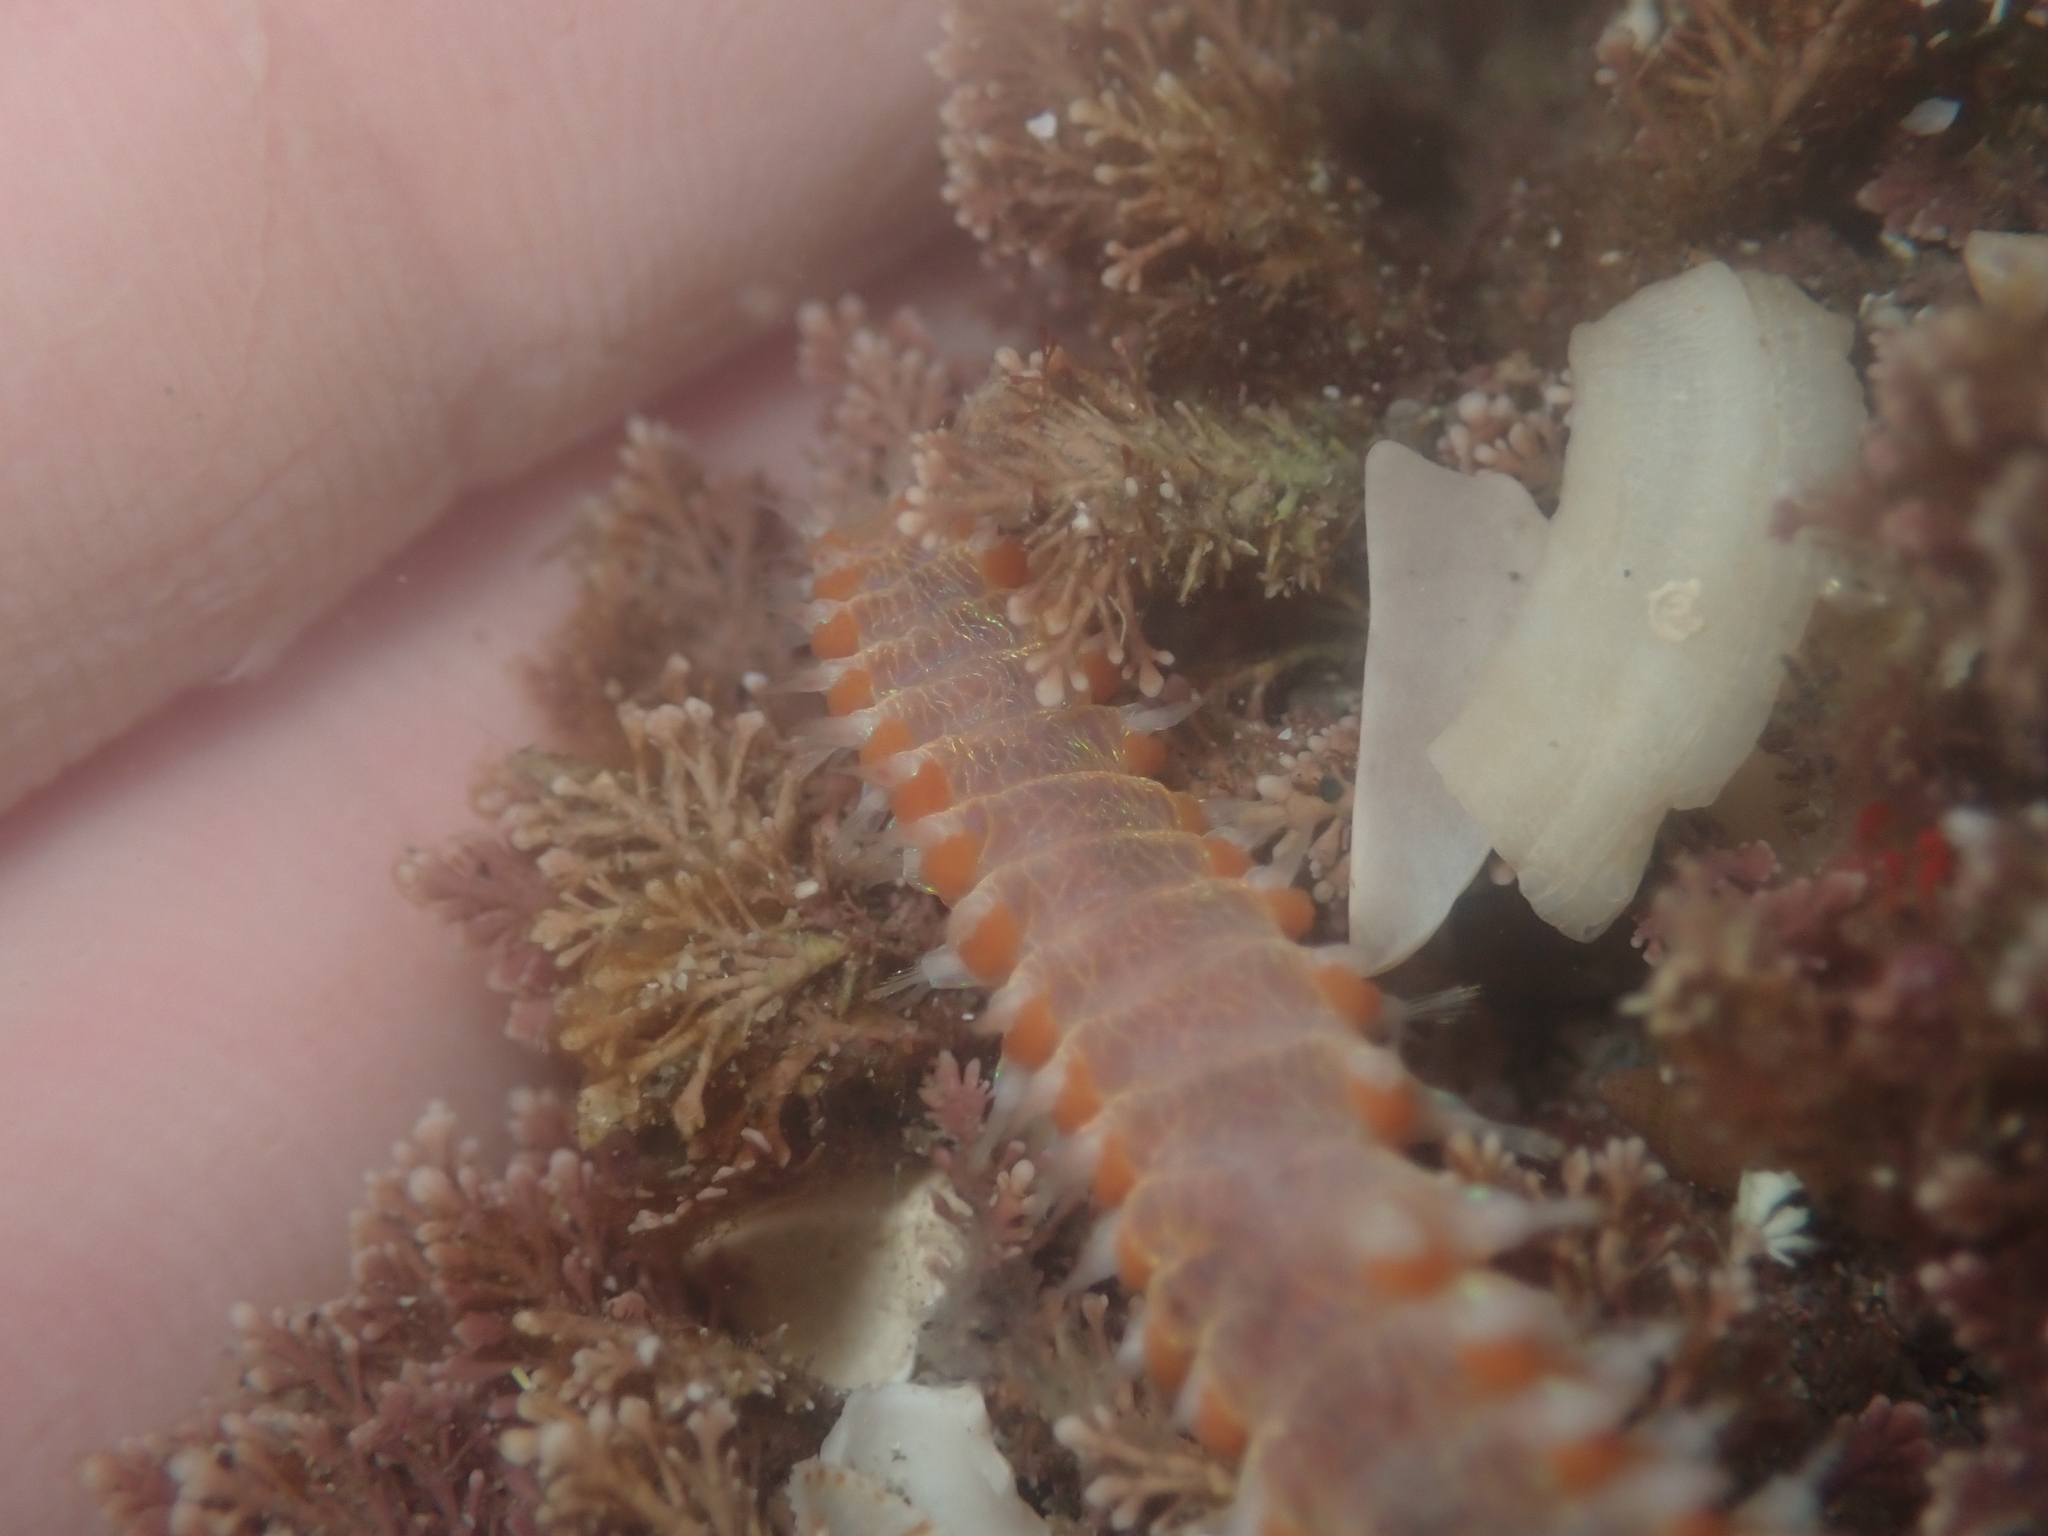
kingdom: Animalia
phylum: Annelida
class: Polychaeta
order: Amphinomida
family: Amphinomidae
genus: Eurythoe
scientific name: Eurythoe complanata
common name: Fireworm
